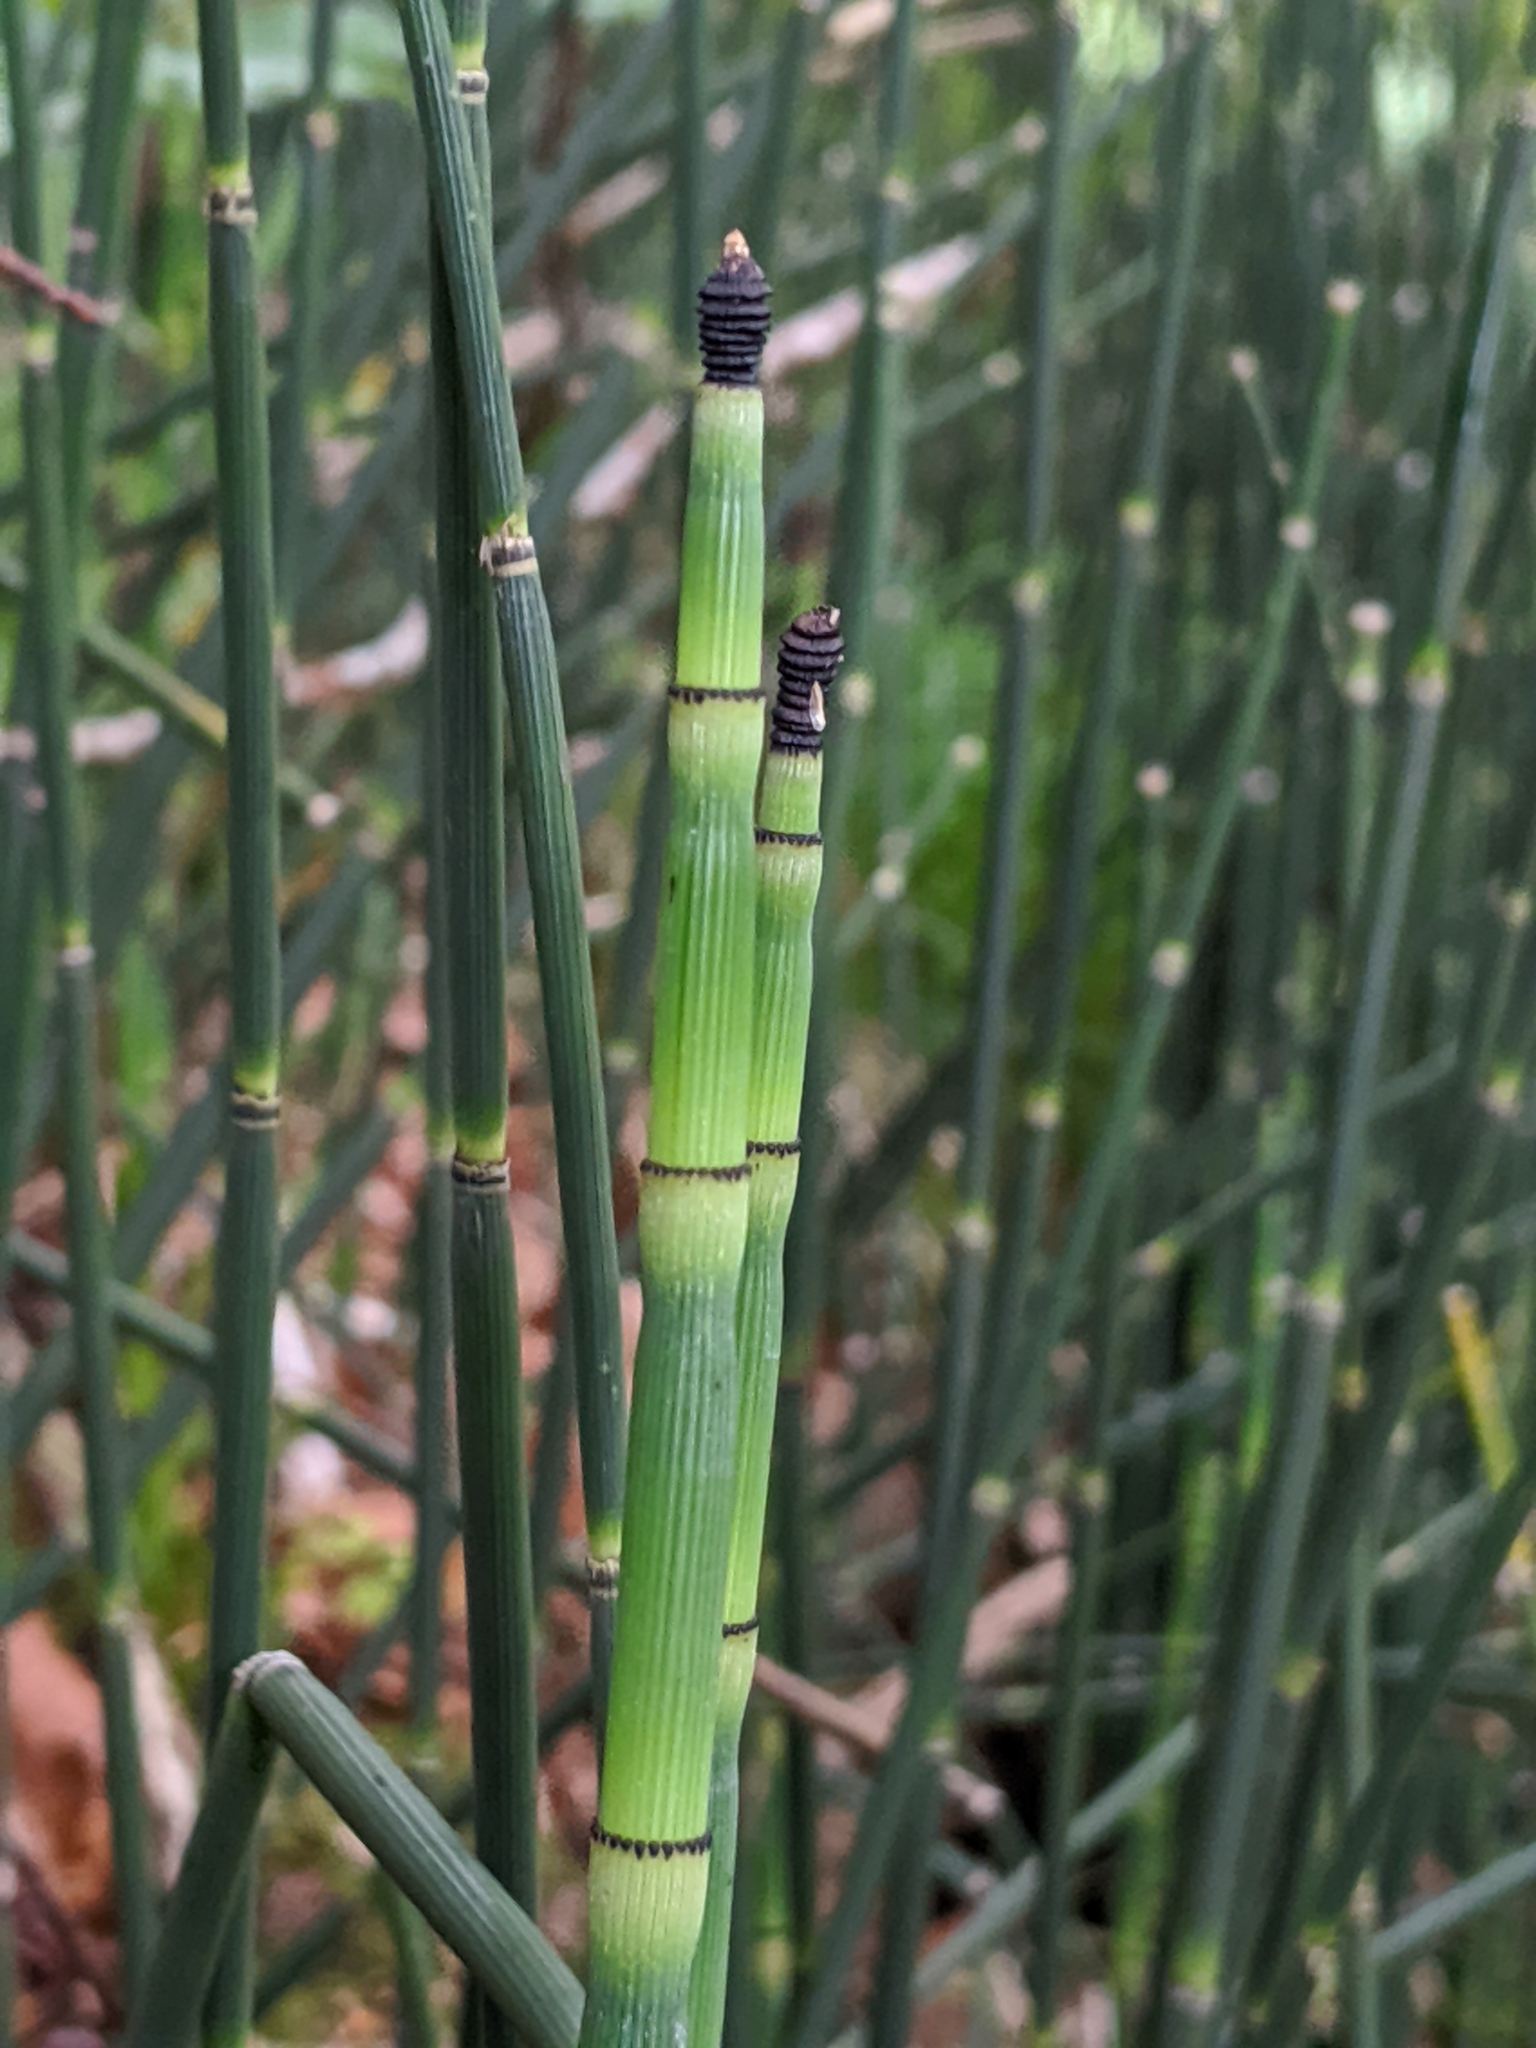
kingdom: Plantae
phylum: Tracheophyta
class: Polypodiopsida
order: Equisetales
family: Equisetaceae
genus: Equisetum
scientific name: Equisetum hyemale
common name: Rough horsetail
